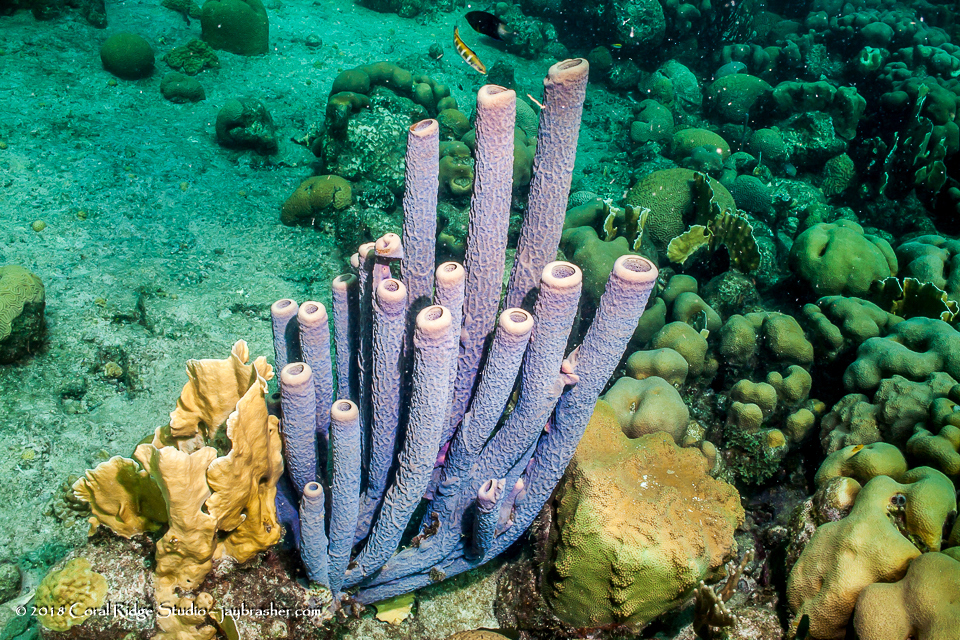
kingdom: Animalia
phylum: Porifera
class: Demospongiae
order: Verongiida
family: Aplysinidae
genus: Aplysina
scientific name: Aplysina archeri
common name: Stove-pipe sponge
